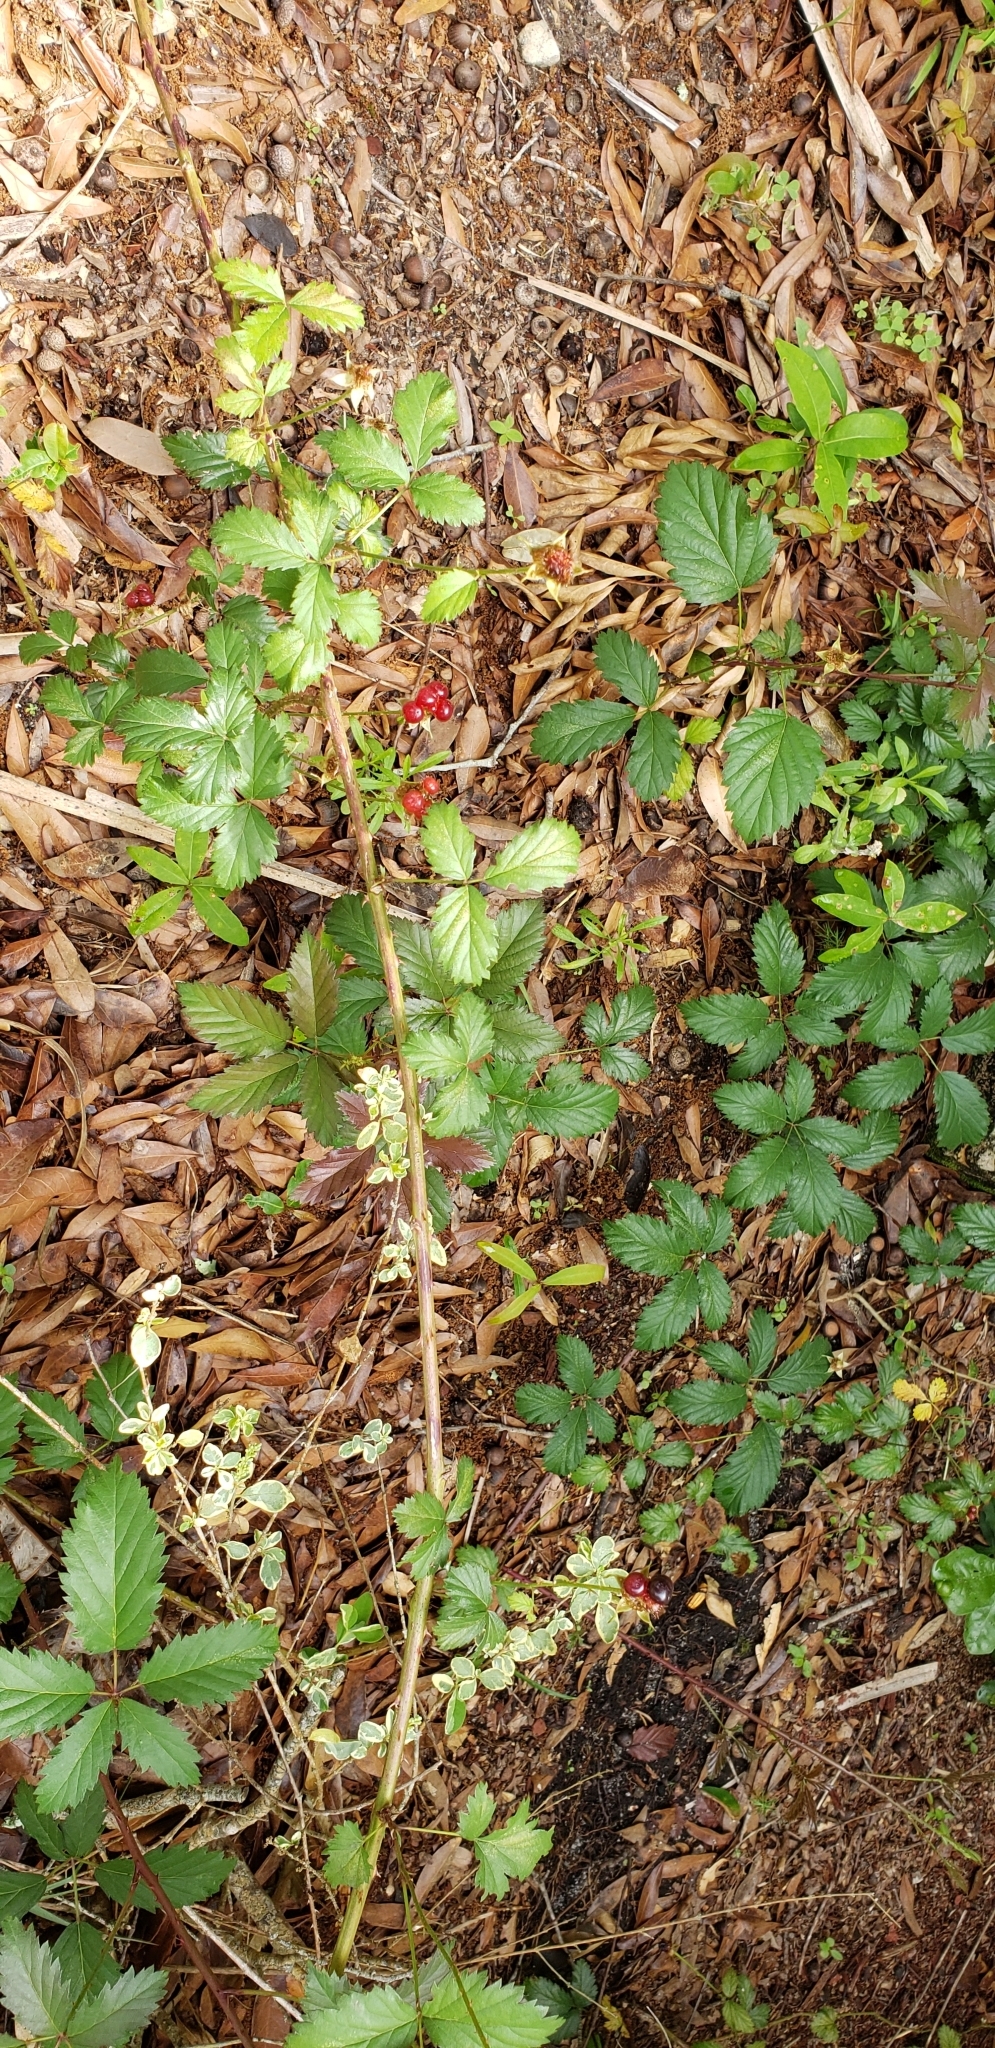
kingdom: Plantae
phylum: Tracheophyta
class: Magnoliopsida
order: Rosales
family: Rosaceae
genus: Rubus
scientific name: Rubus trivialis
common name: Southern dewberry
